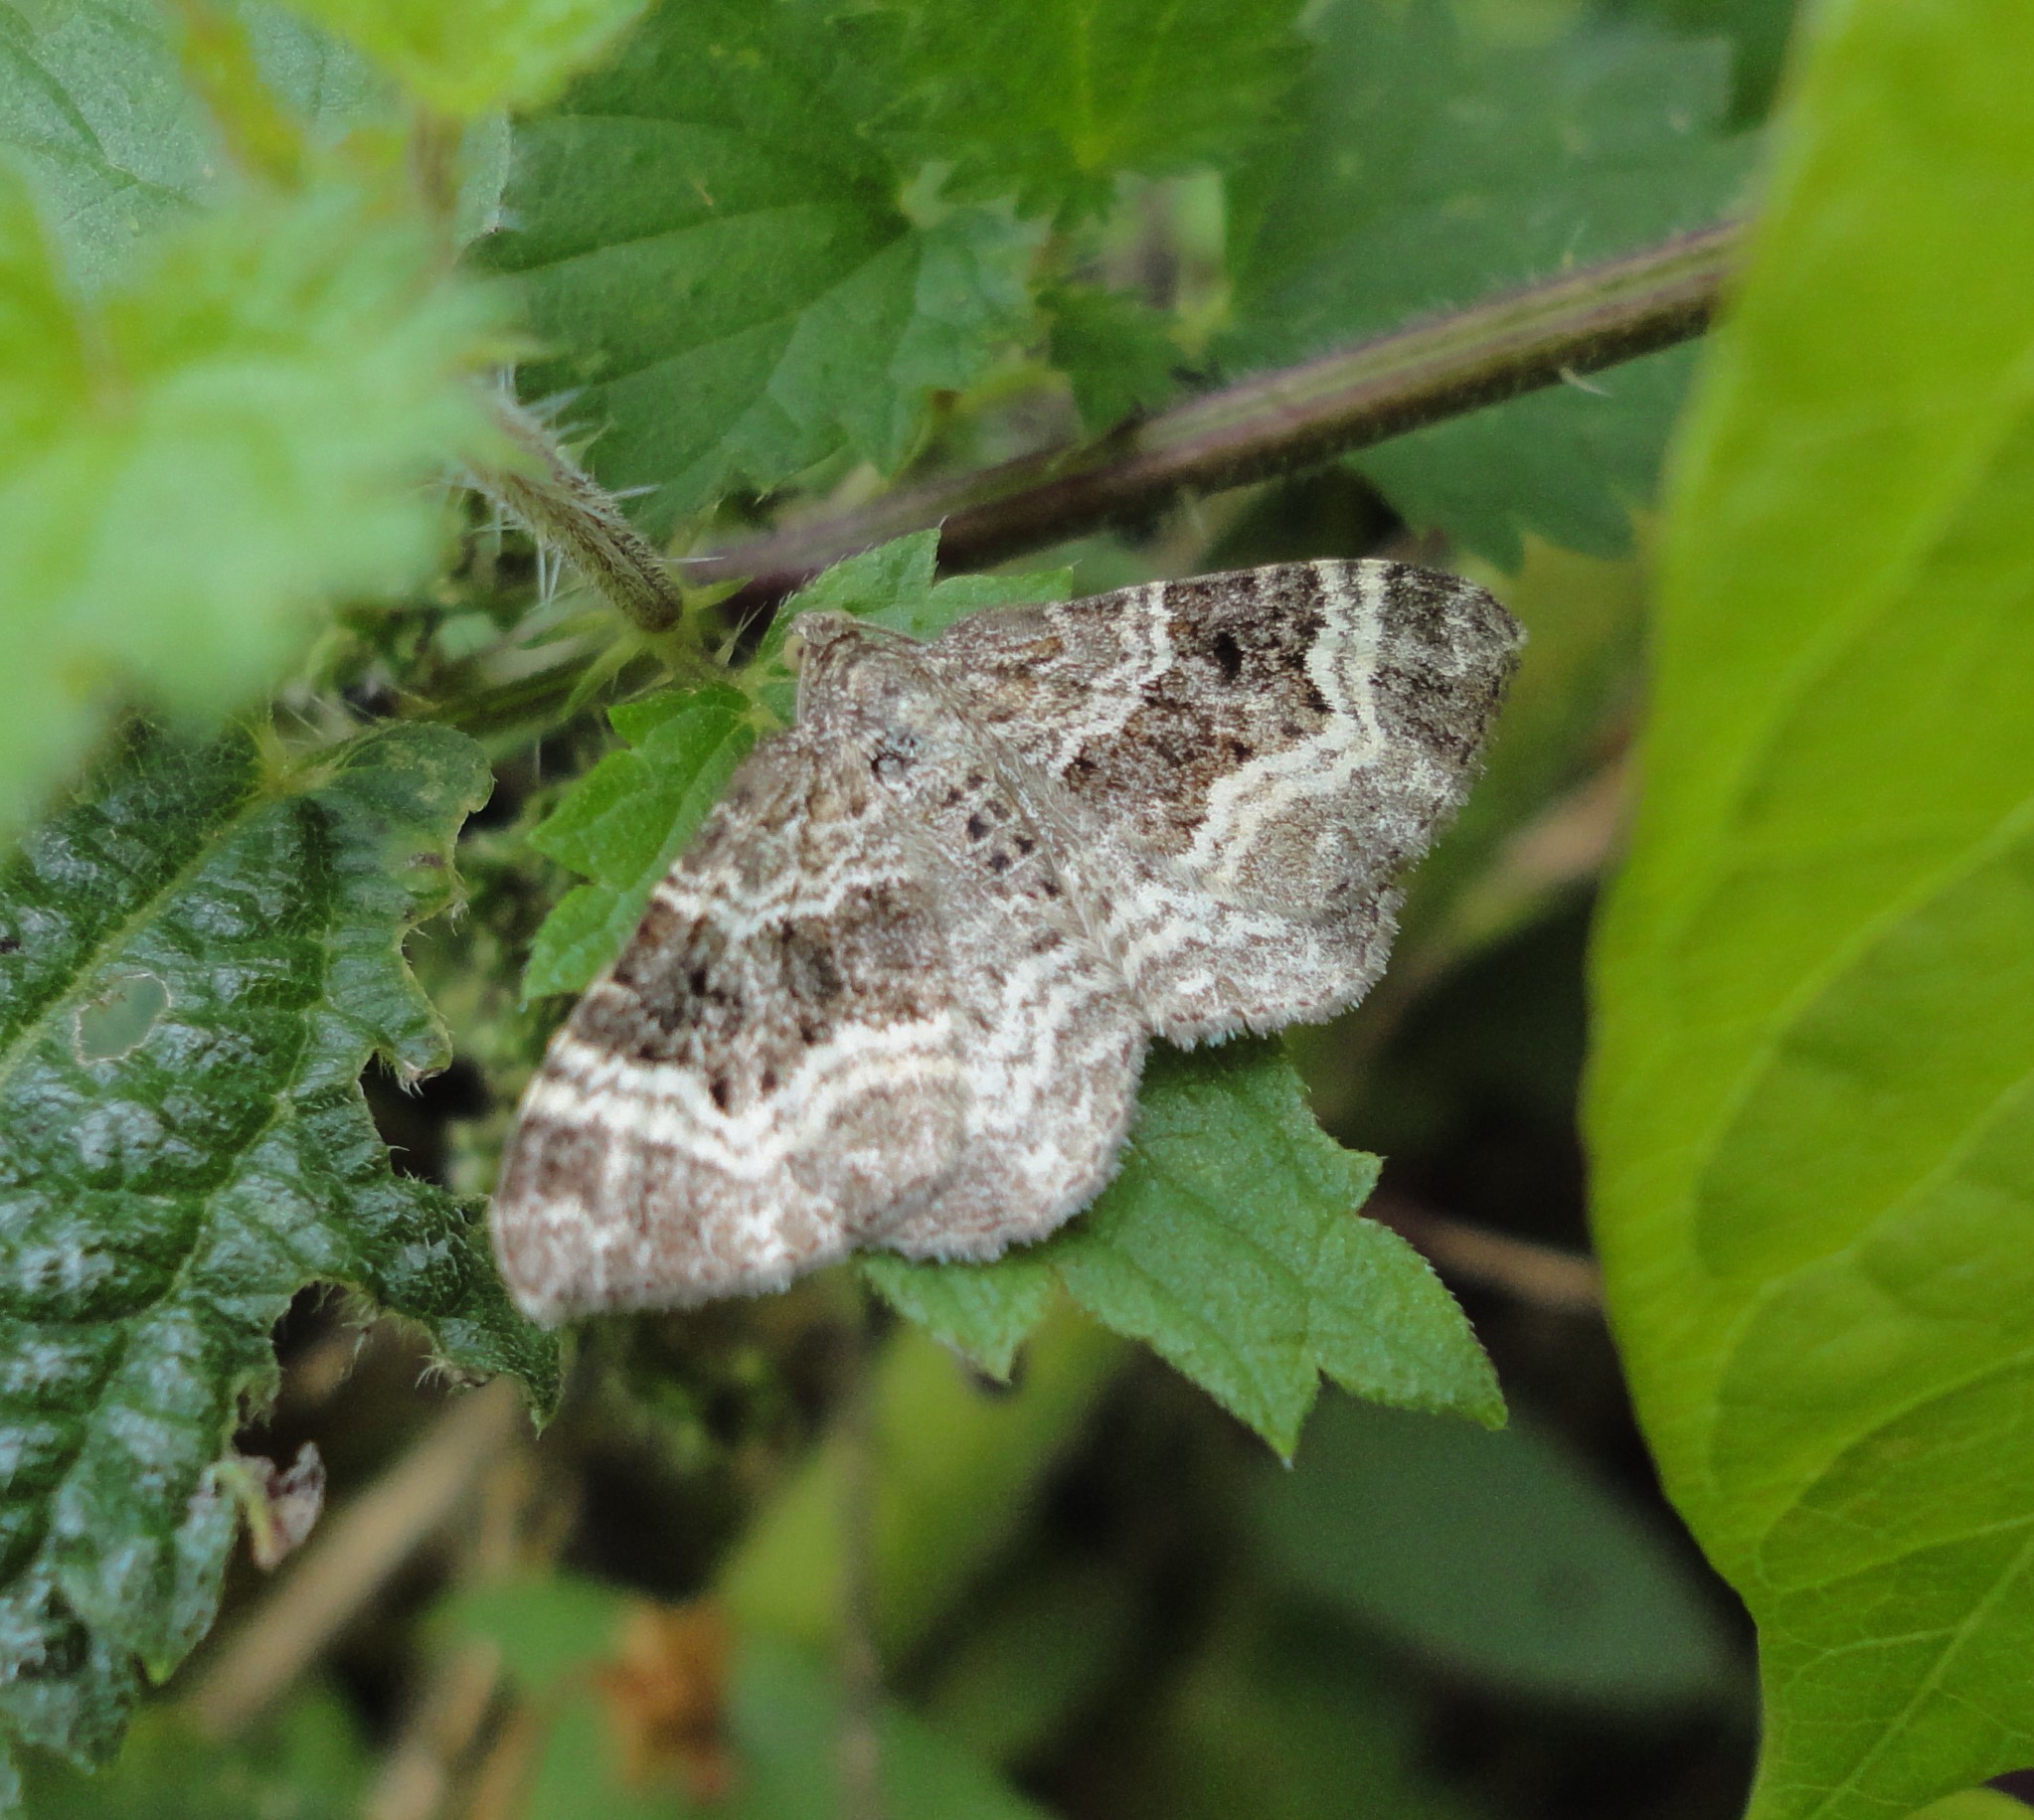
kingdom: Animalia
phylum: Arthropoda
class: Insecta
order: Lepidoptera
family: Geometridae
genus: Epirrhoe
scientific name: Epirrhoe alternata
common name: Common carpet
